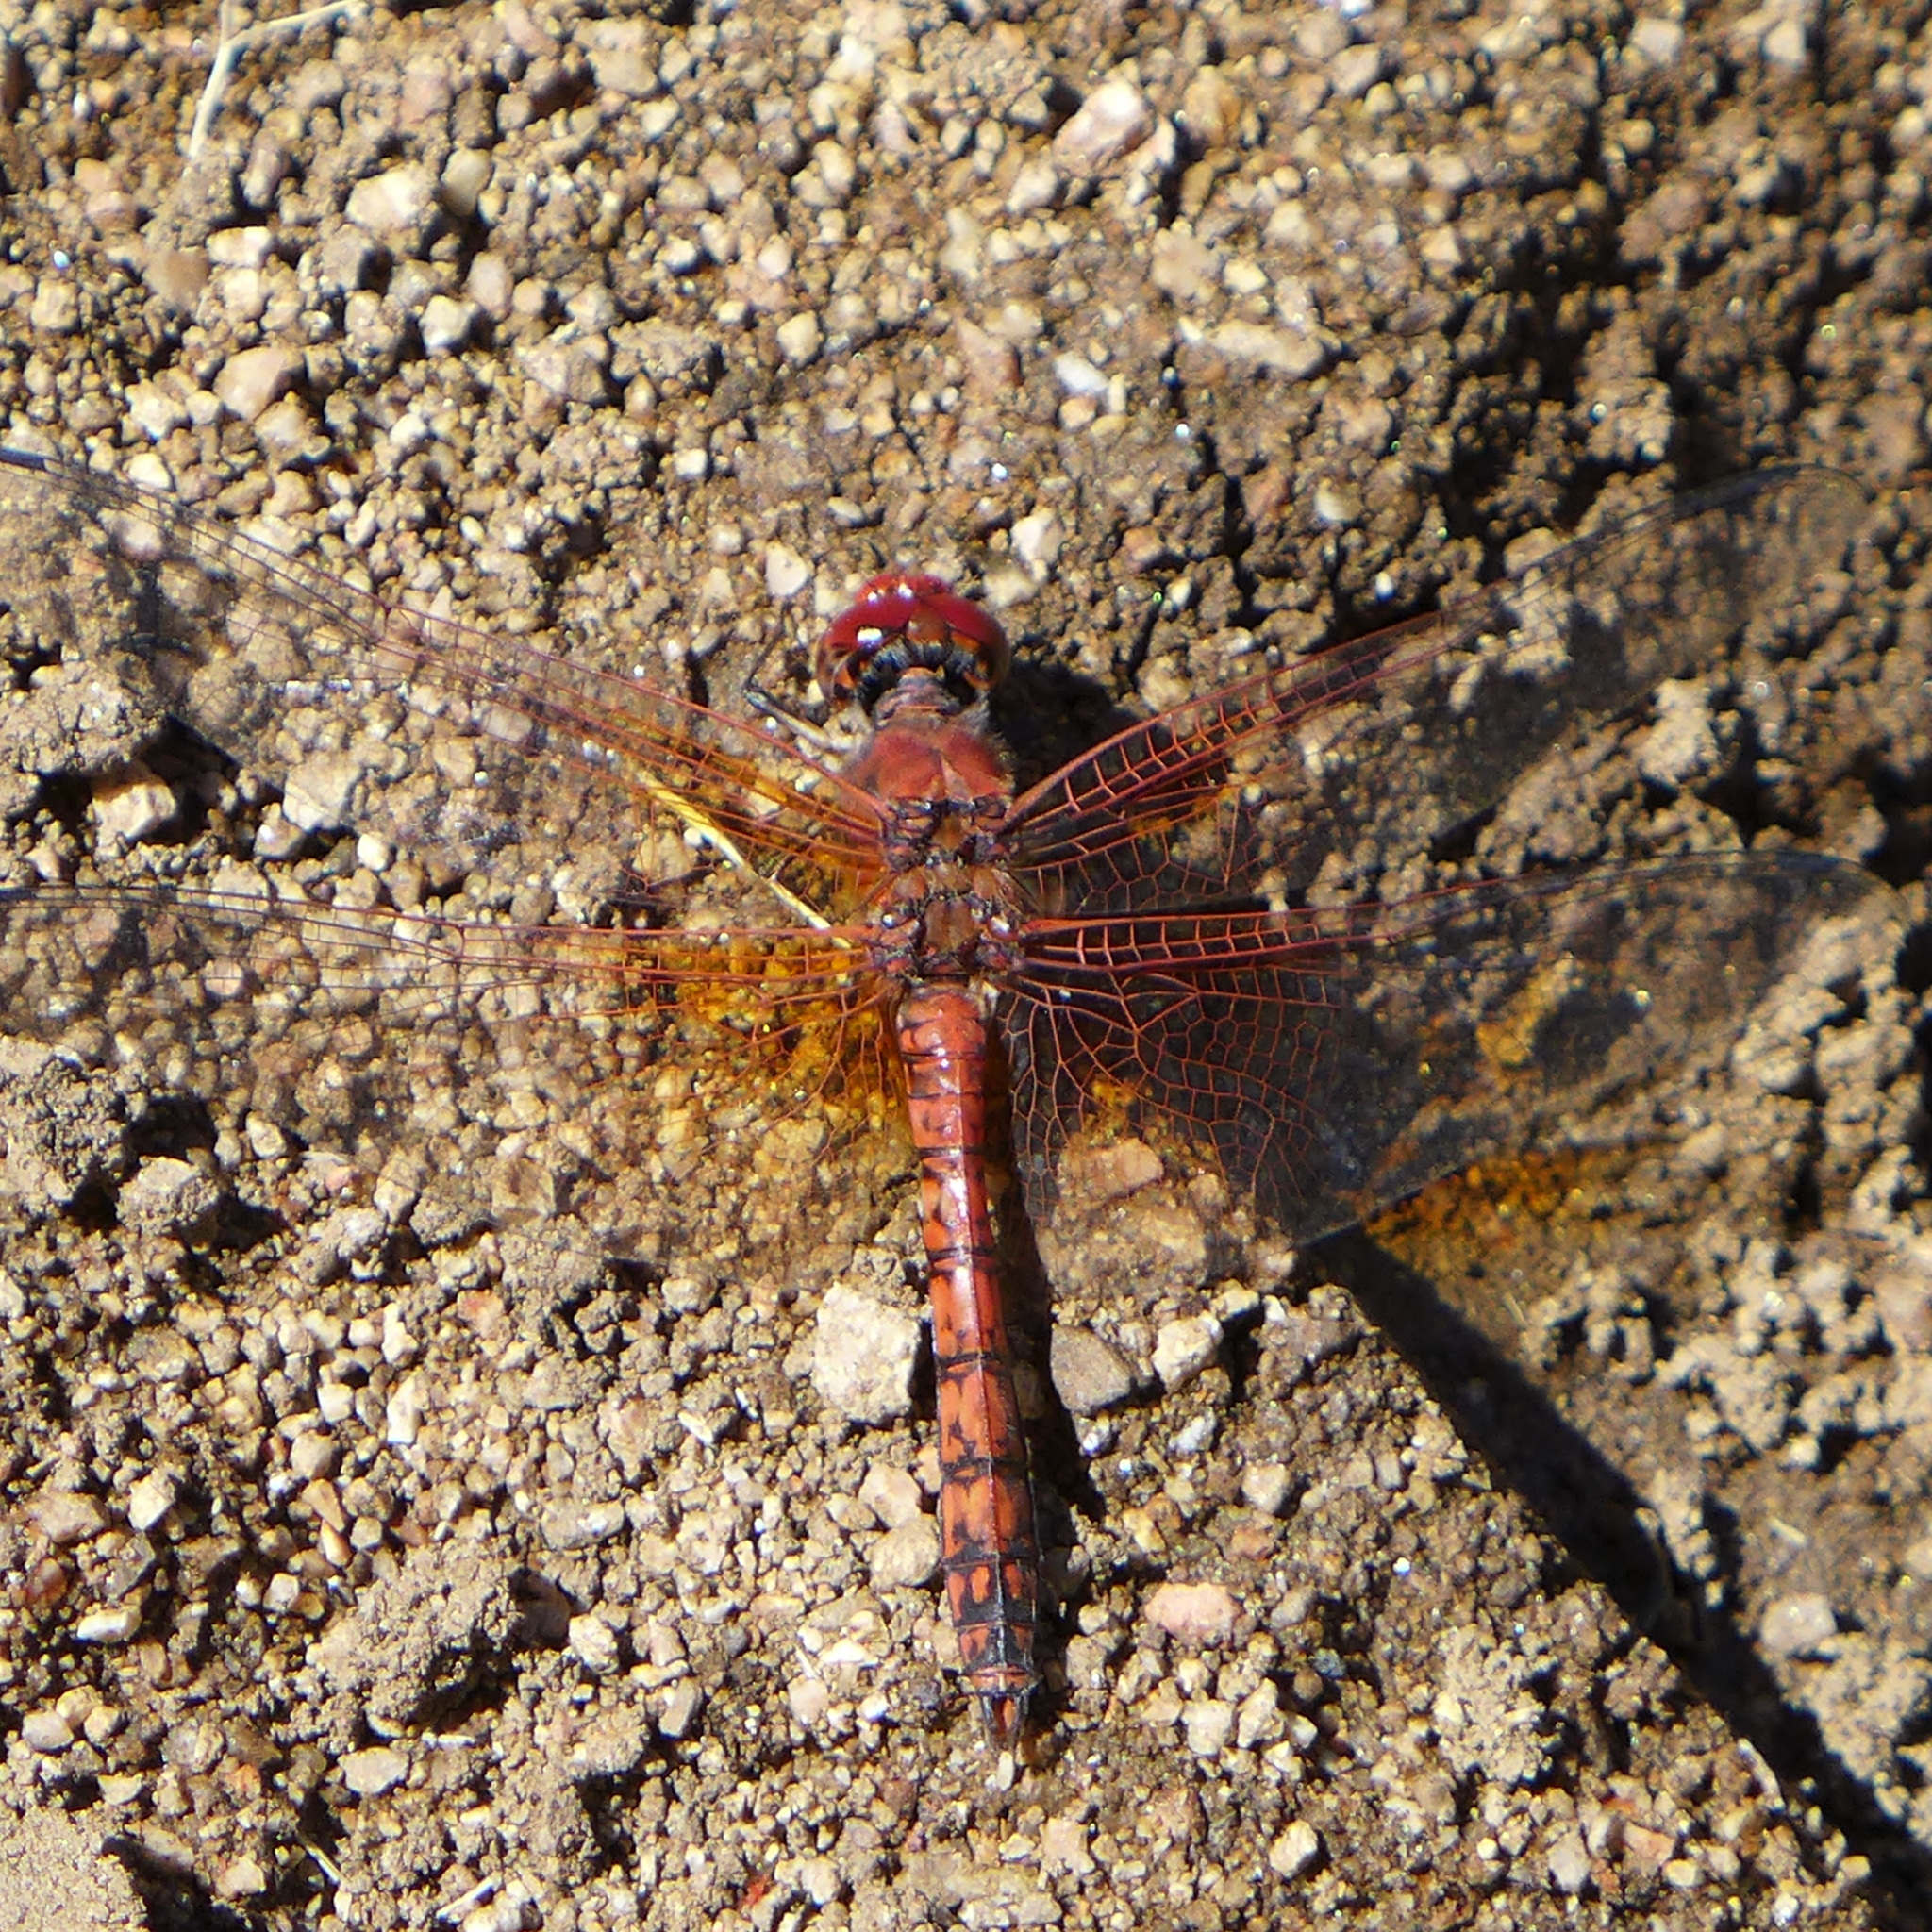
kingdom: Animalia
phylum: Arthropoda
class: Insecta
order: Odonata
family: Libellulidae
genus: Paltothemis
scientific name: Paltothemis lineatipes
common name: Red rock skimmer
